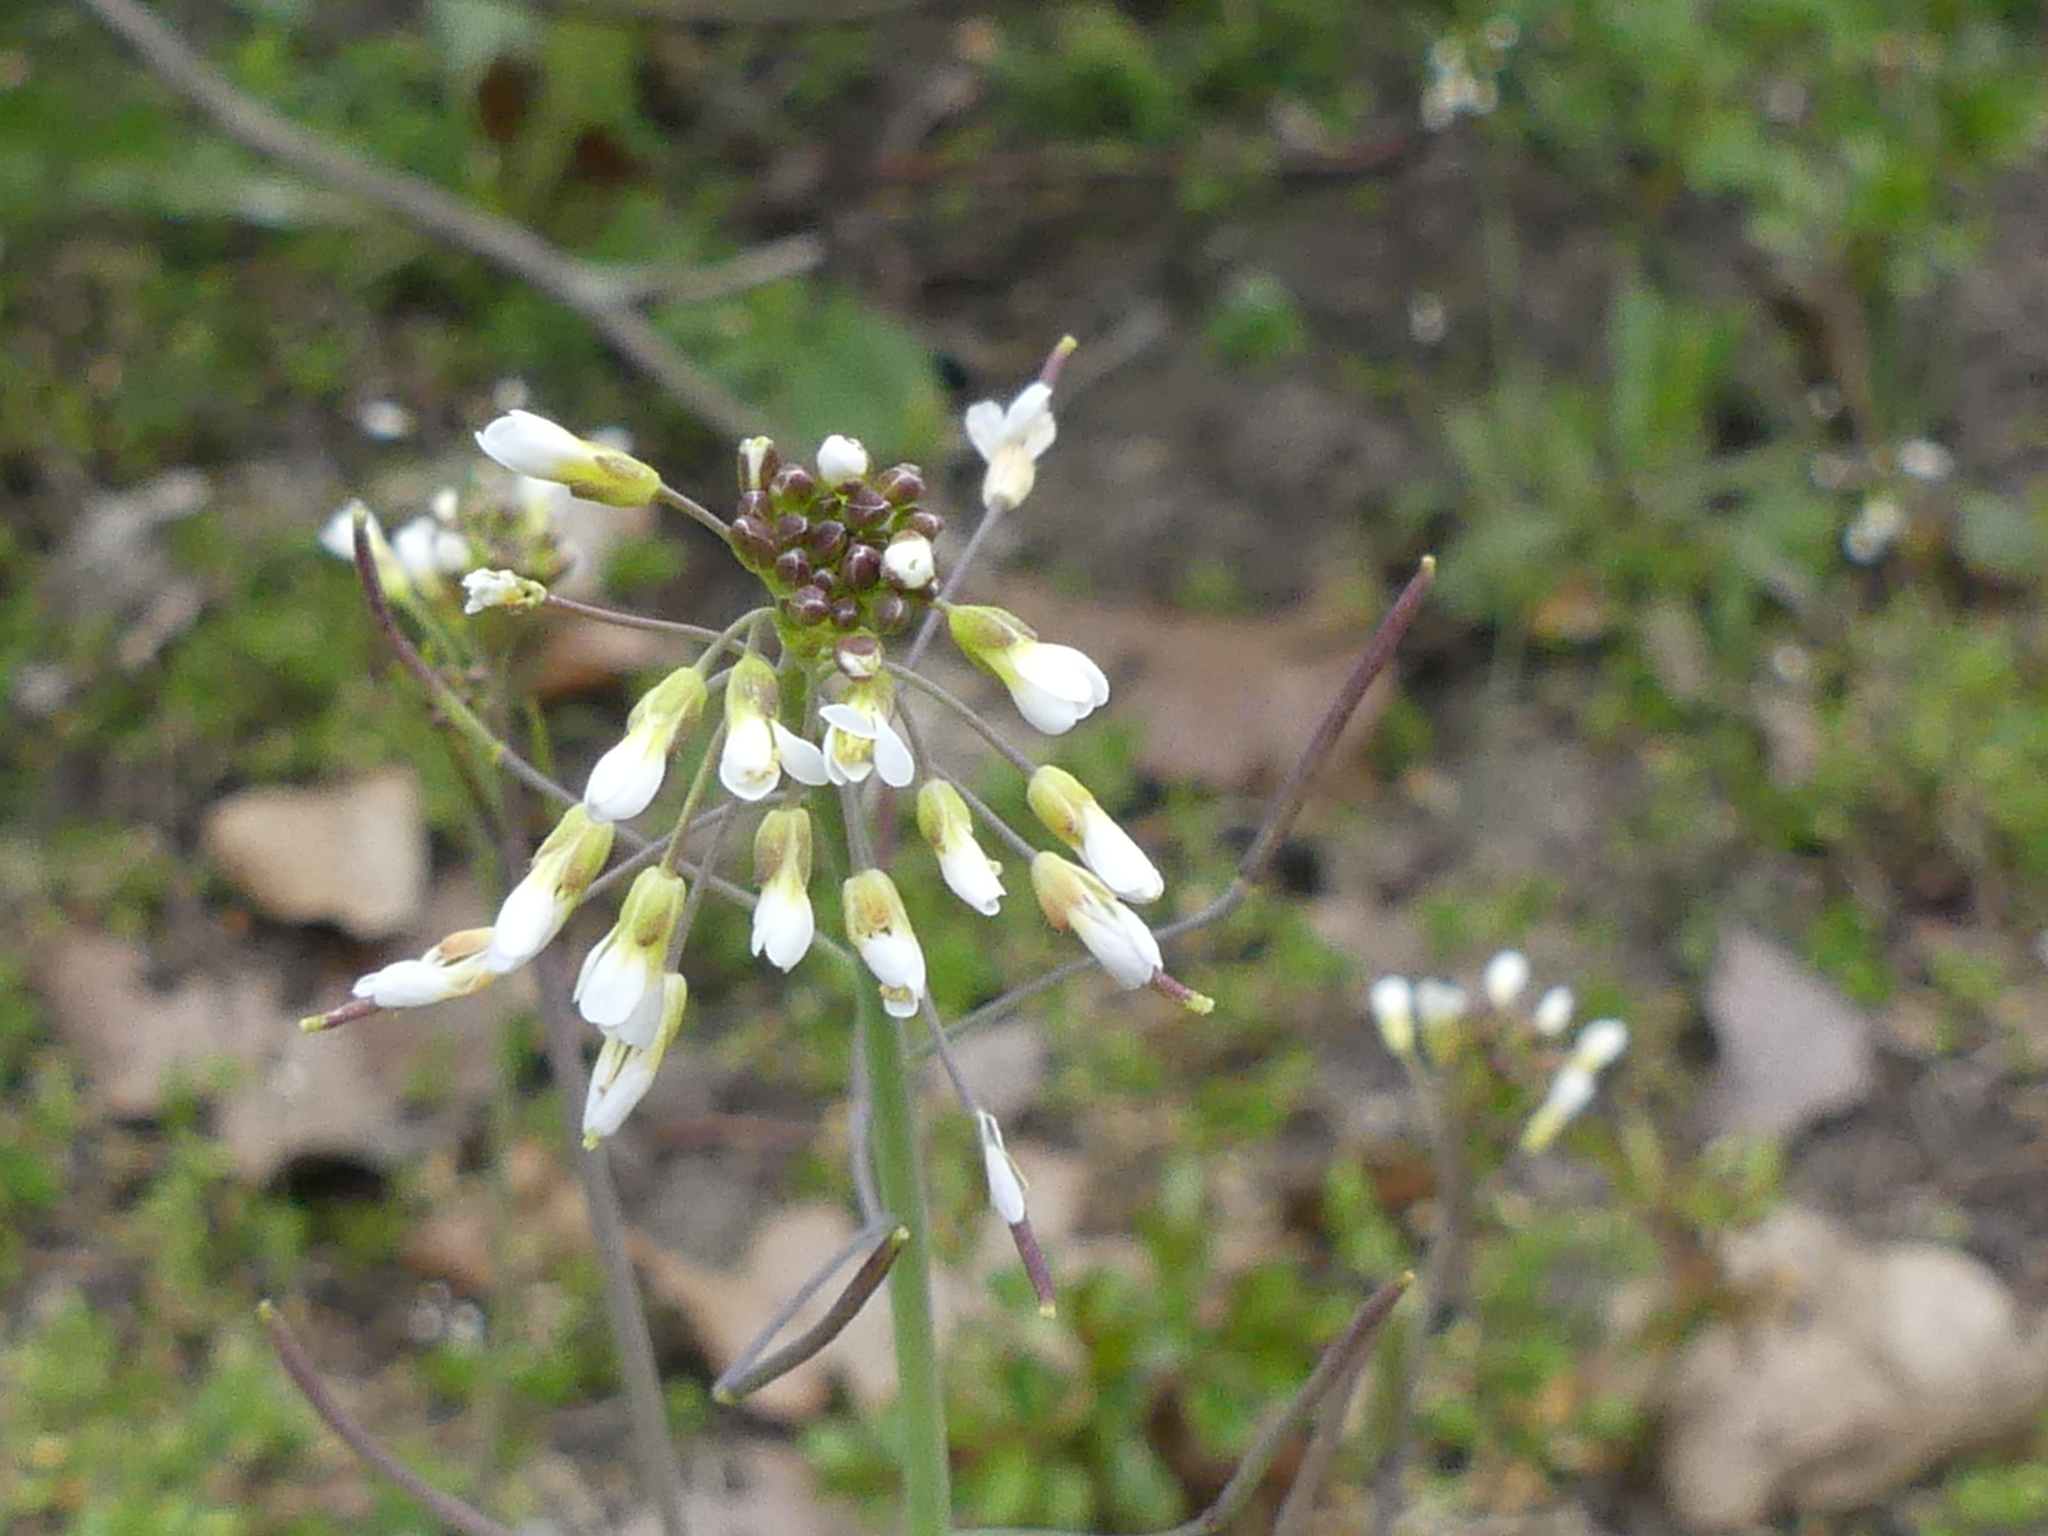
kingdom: Plantae
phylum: Tracheophyta
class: Magnoliopsida
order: Brassicales
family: Brassicaceae
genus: Arabidopsis
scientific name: Arabidopsis thaliana
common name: Thale cress
